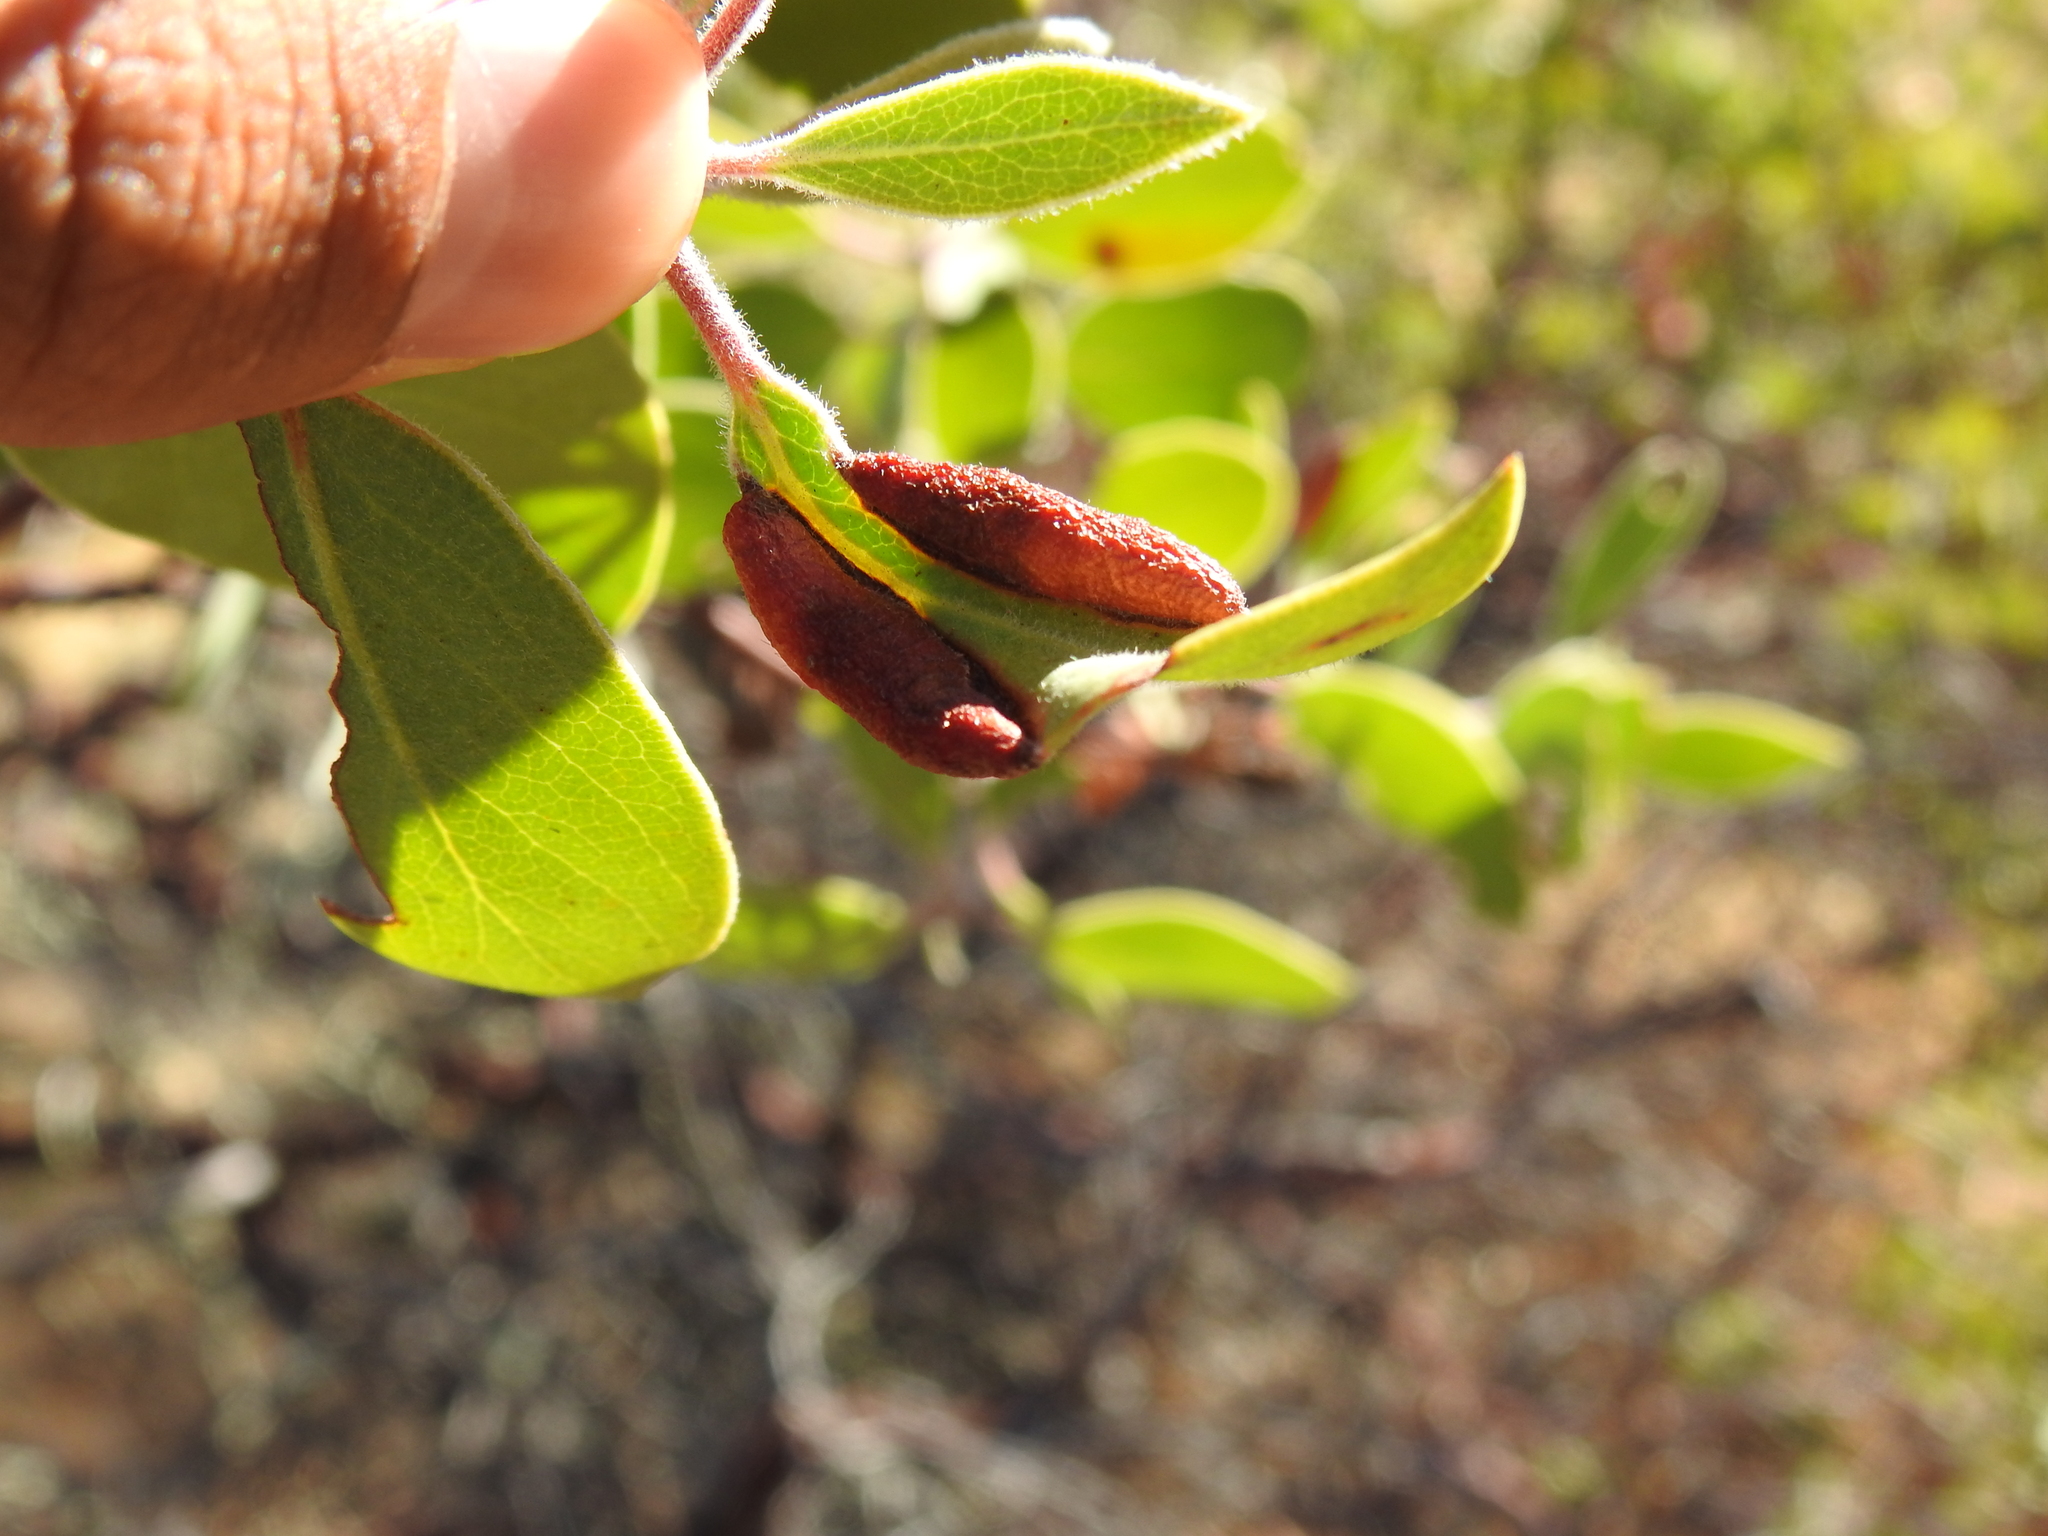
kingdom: Animalia
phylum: Arthropoda
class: Insecta
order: Hemiptera
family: Aphididae
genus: Tamalia
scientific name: Tamalia coweni
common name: Manzanita leafgall aphid
